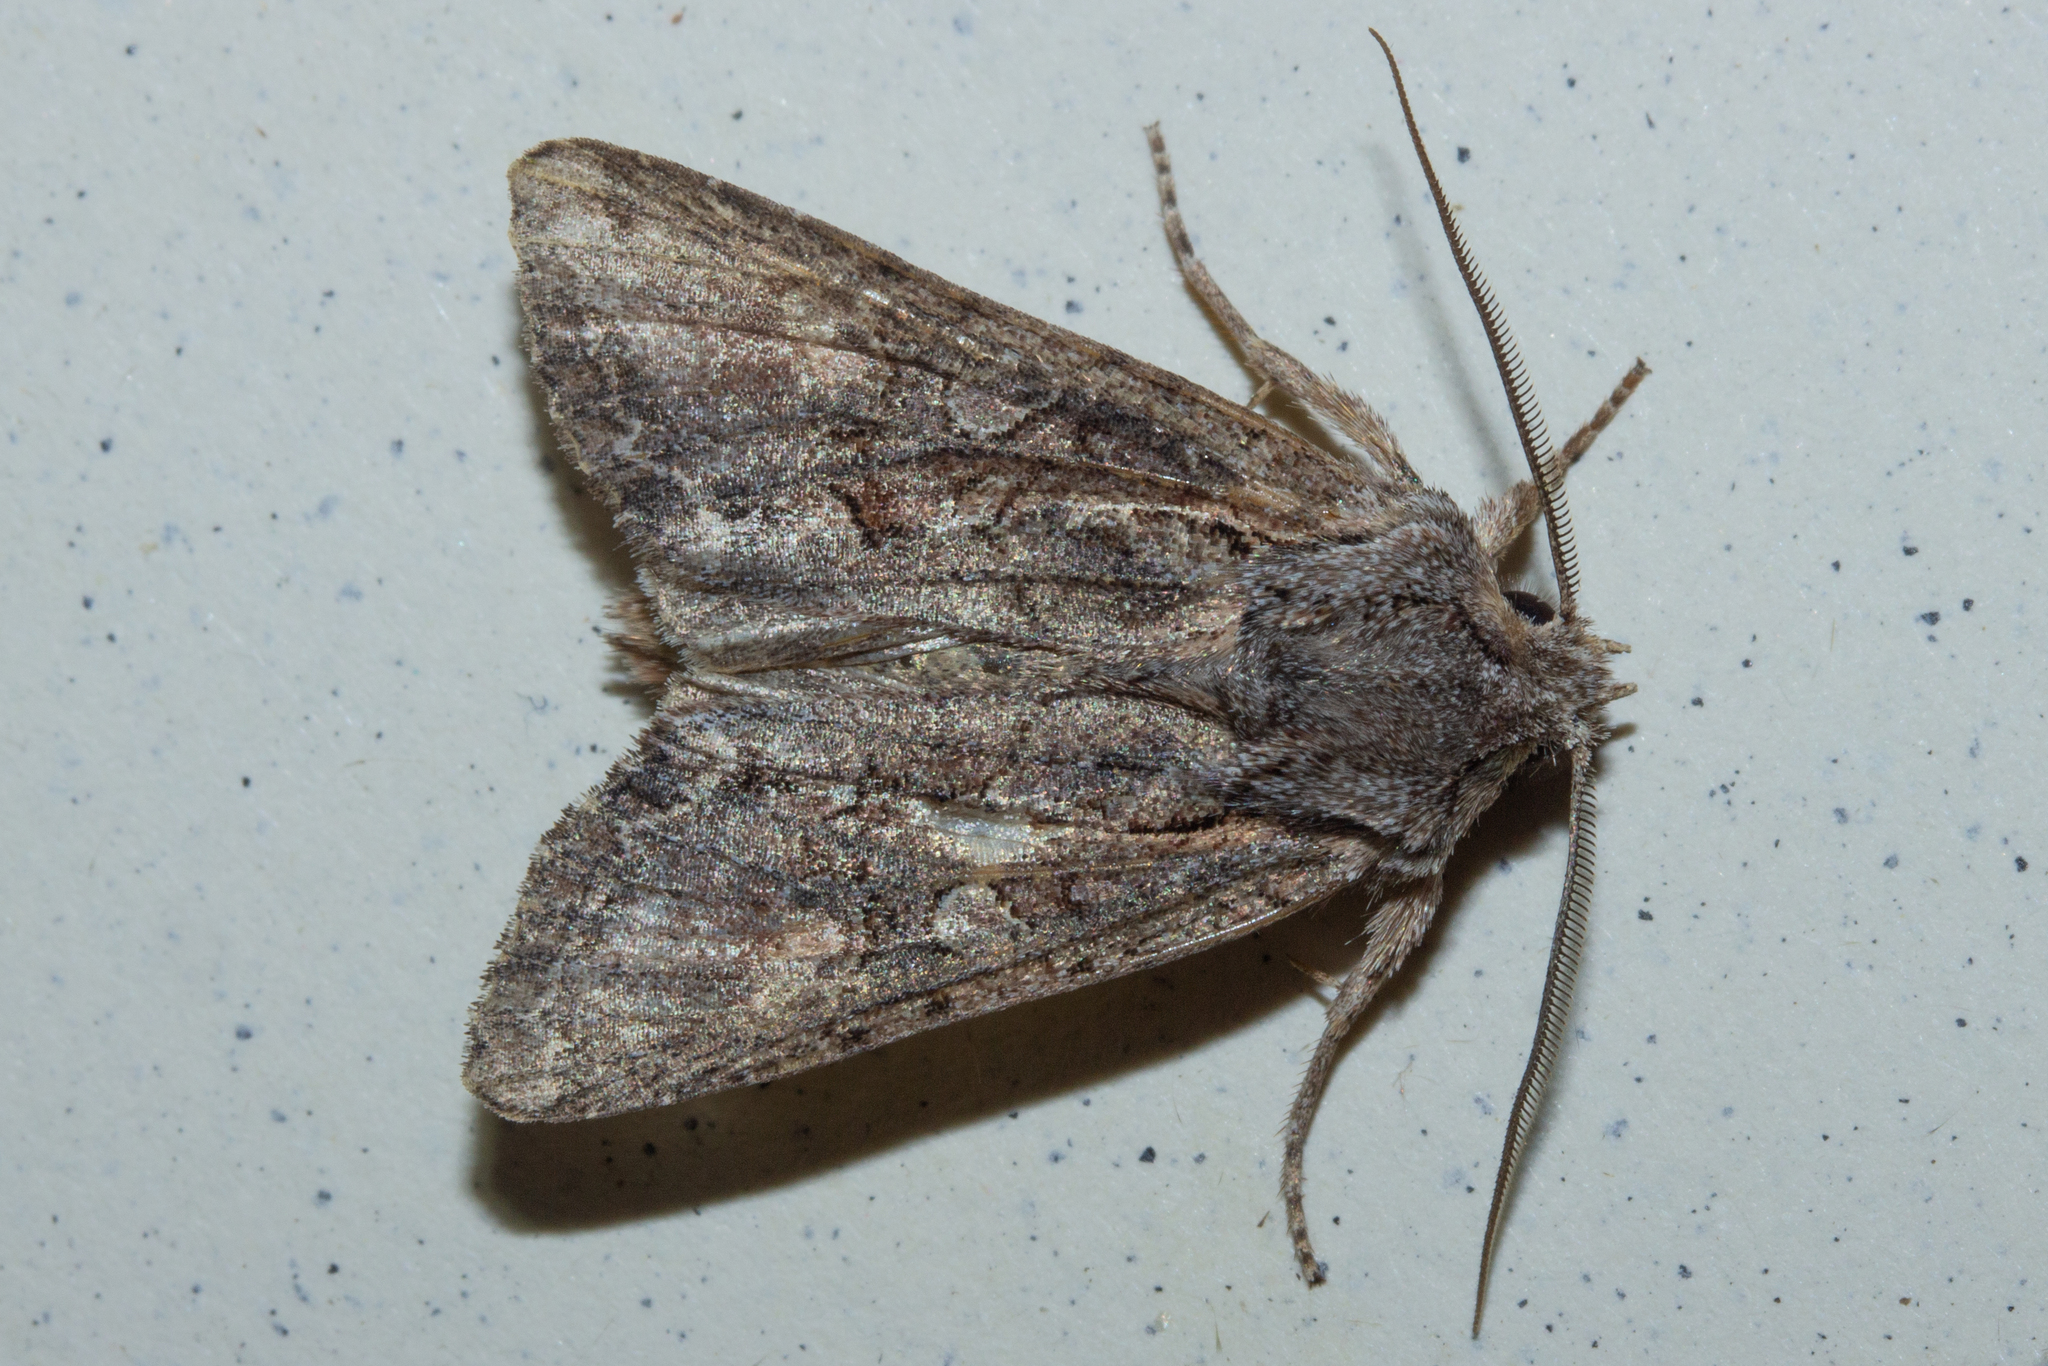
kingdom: Animalia
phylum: Arthropoda
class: Insecta
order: Lepidoptera
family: Noctuidae
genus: Ichneutica
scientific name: Ichneutica mutans
